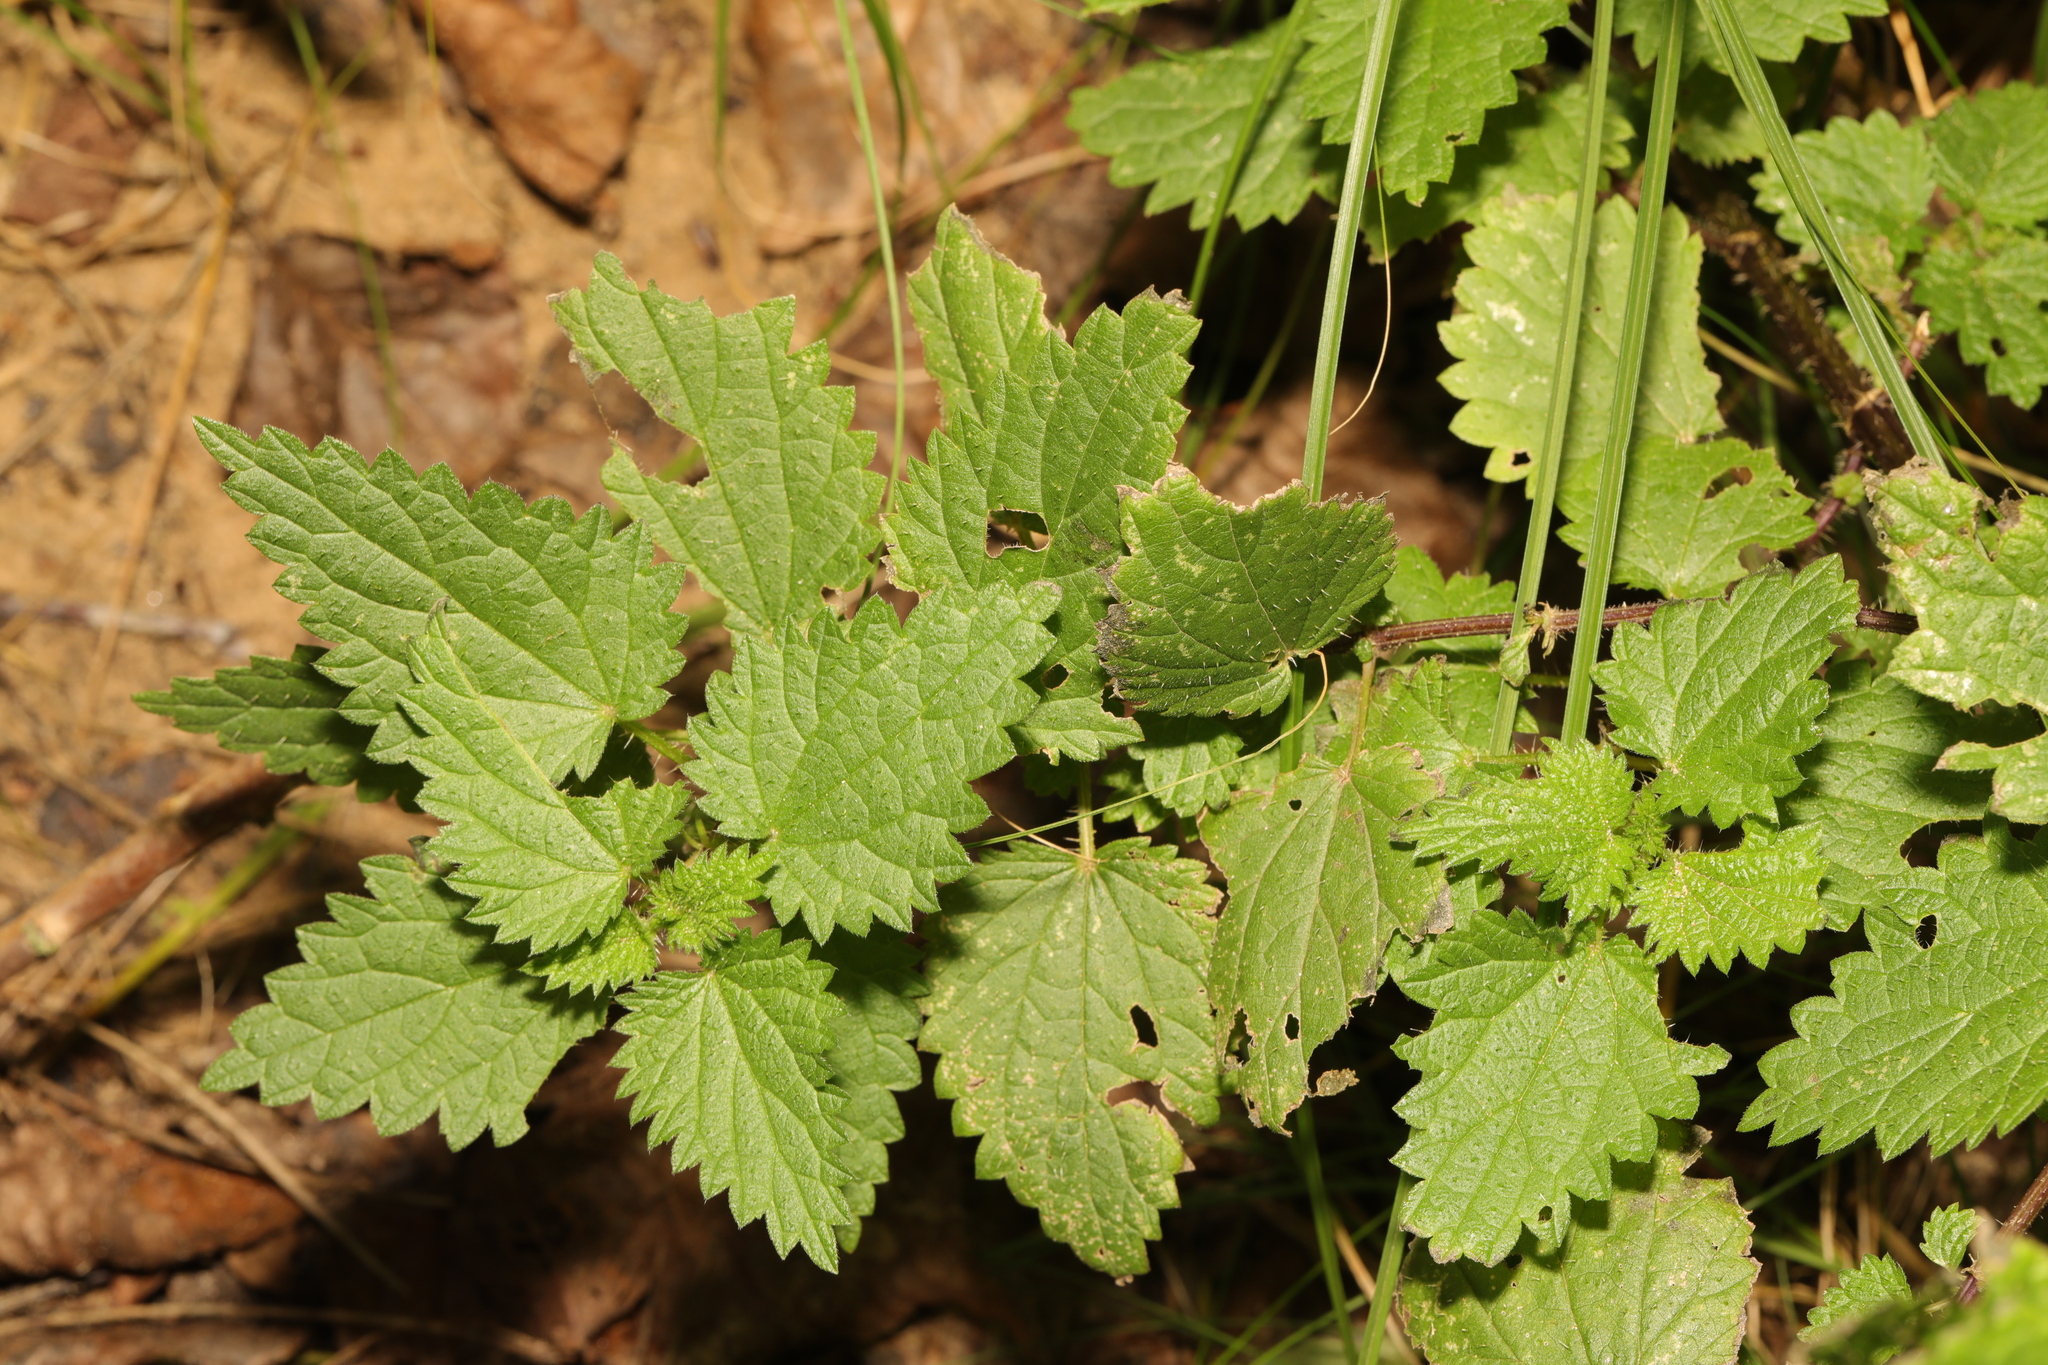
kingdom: Plantae
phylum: Tracheophyta
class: Magnoliopsida
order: Rosales
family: Urticaceae
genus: Urtica
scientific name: Urtica dioica
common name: Common nettle
